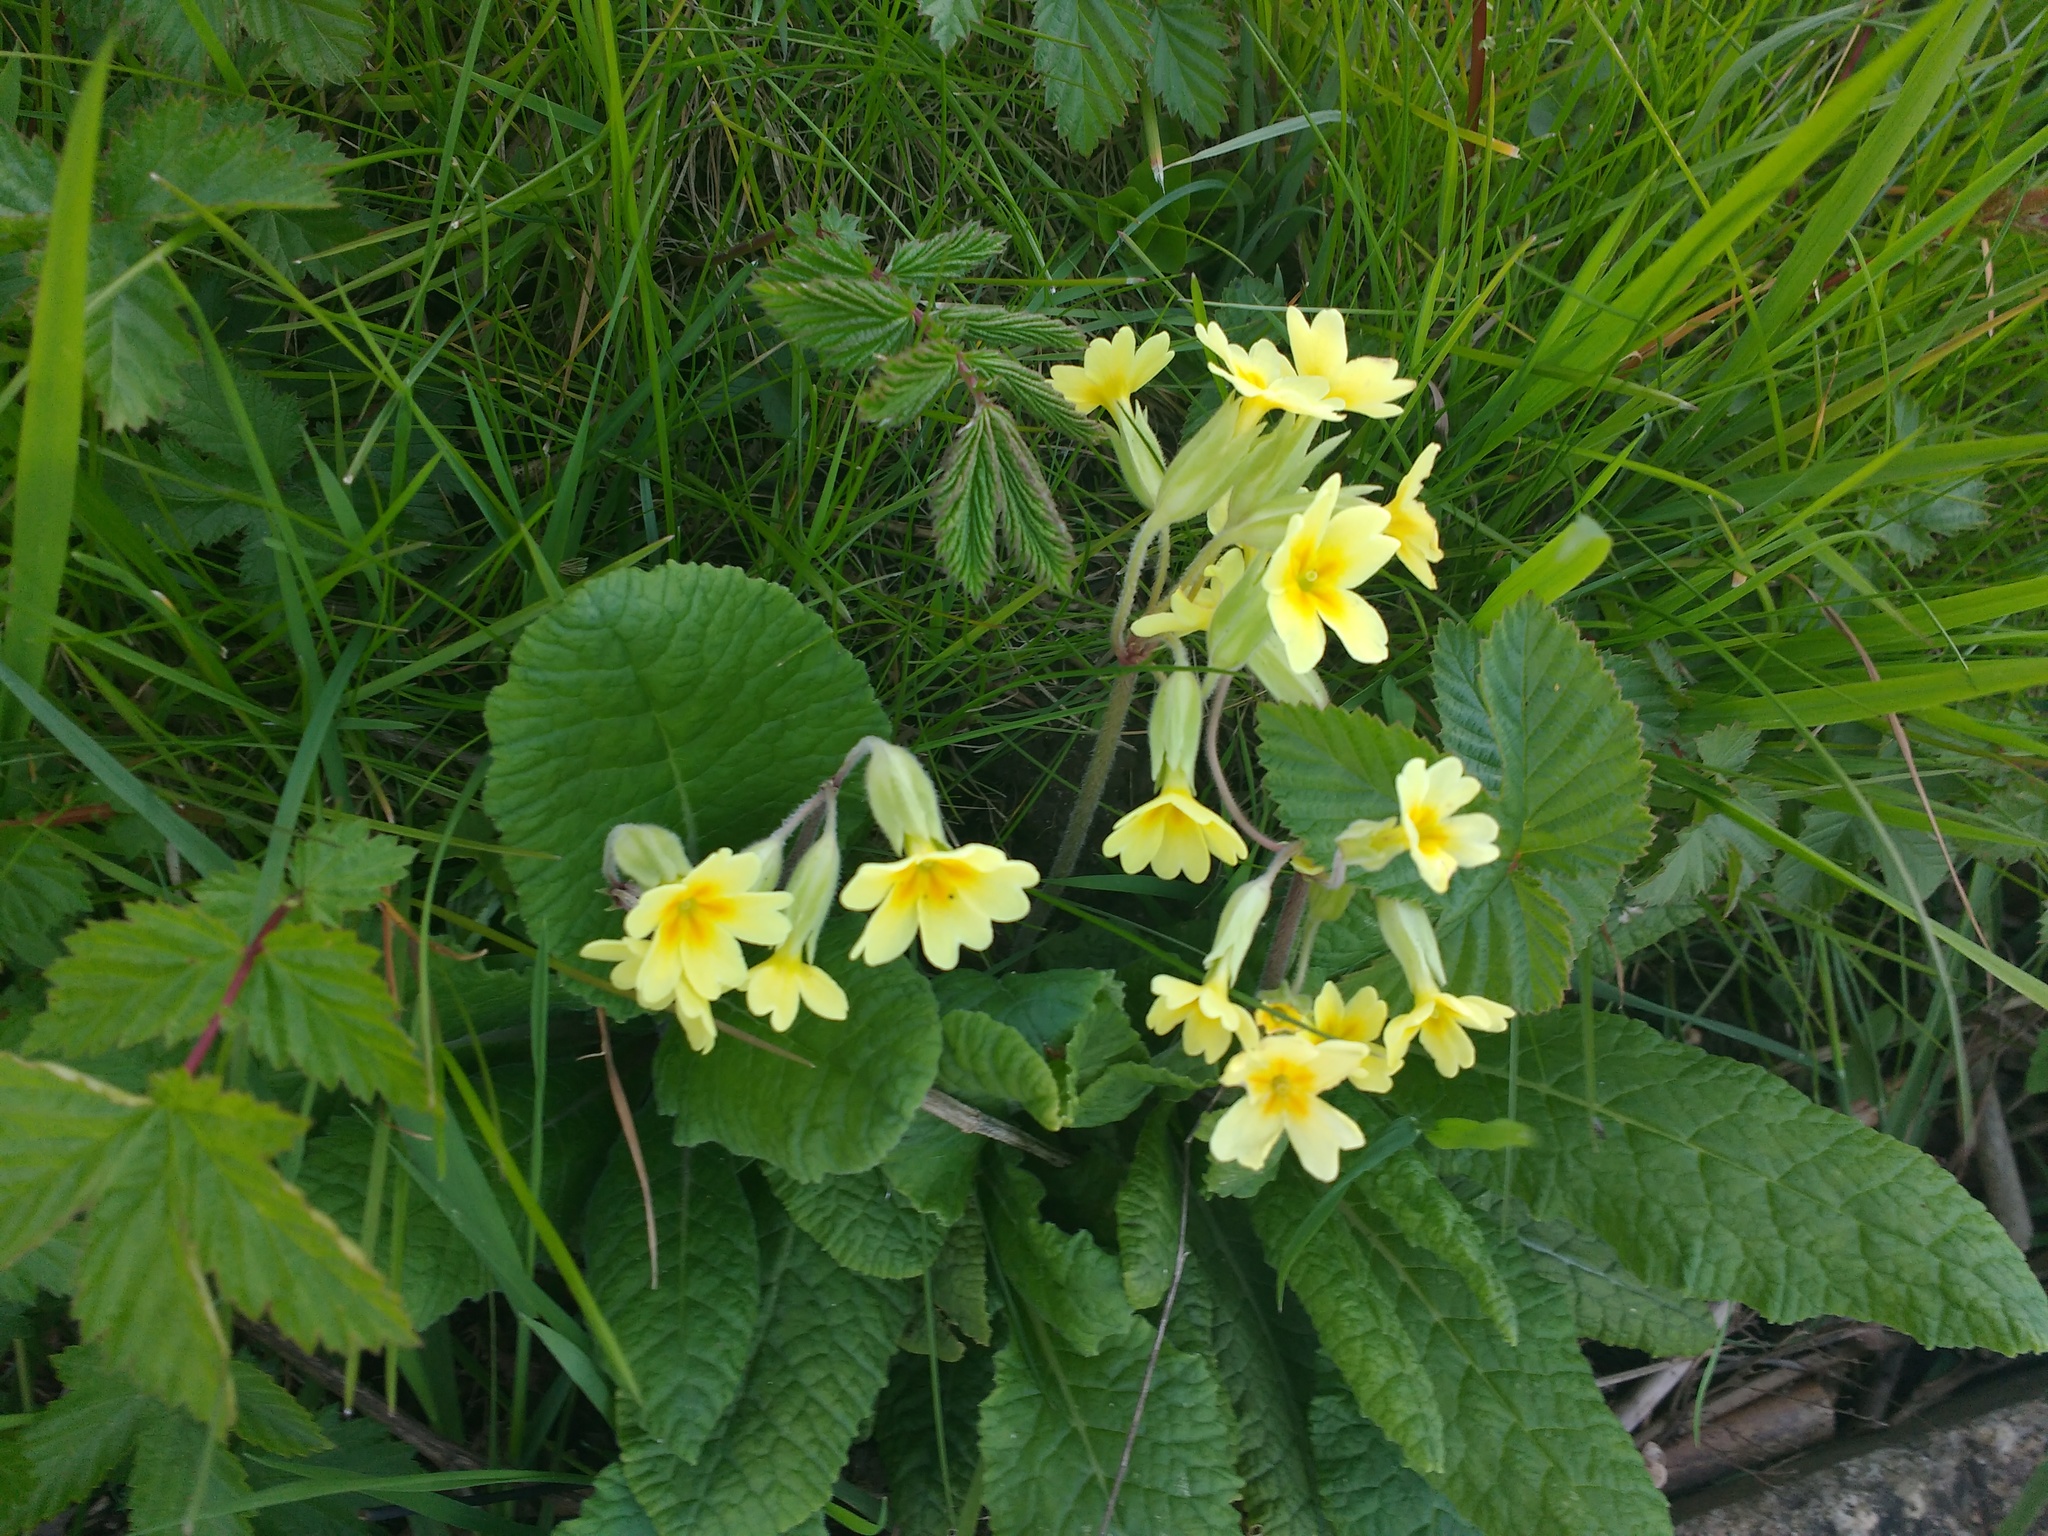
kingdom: Plantae
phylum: Tracheophyta
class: Magnoliopsida
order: Ericales
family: Primulaceae
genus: Primula
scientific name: Primula polyantha
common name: False oxlip
